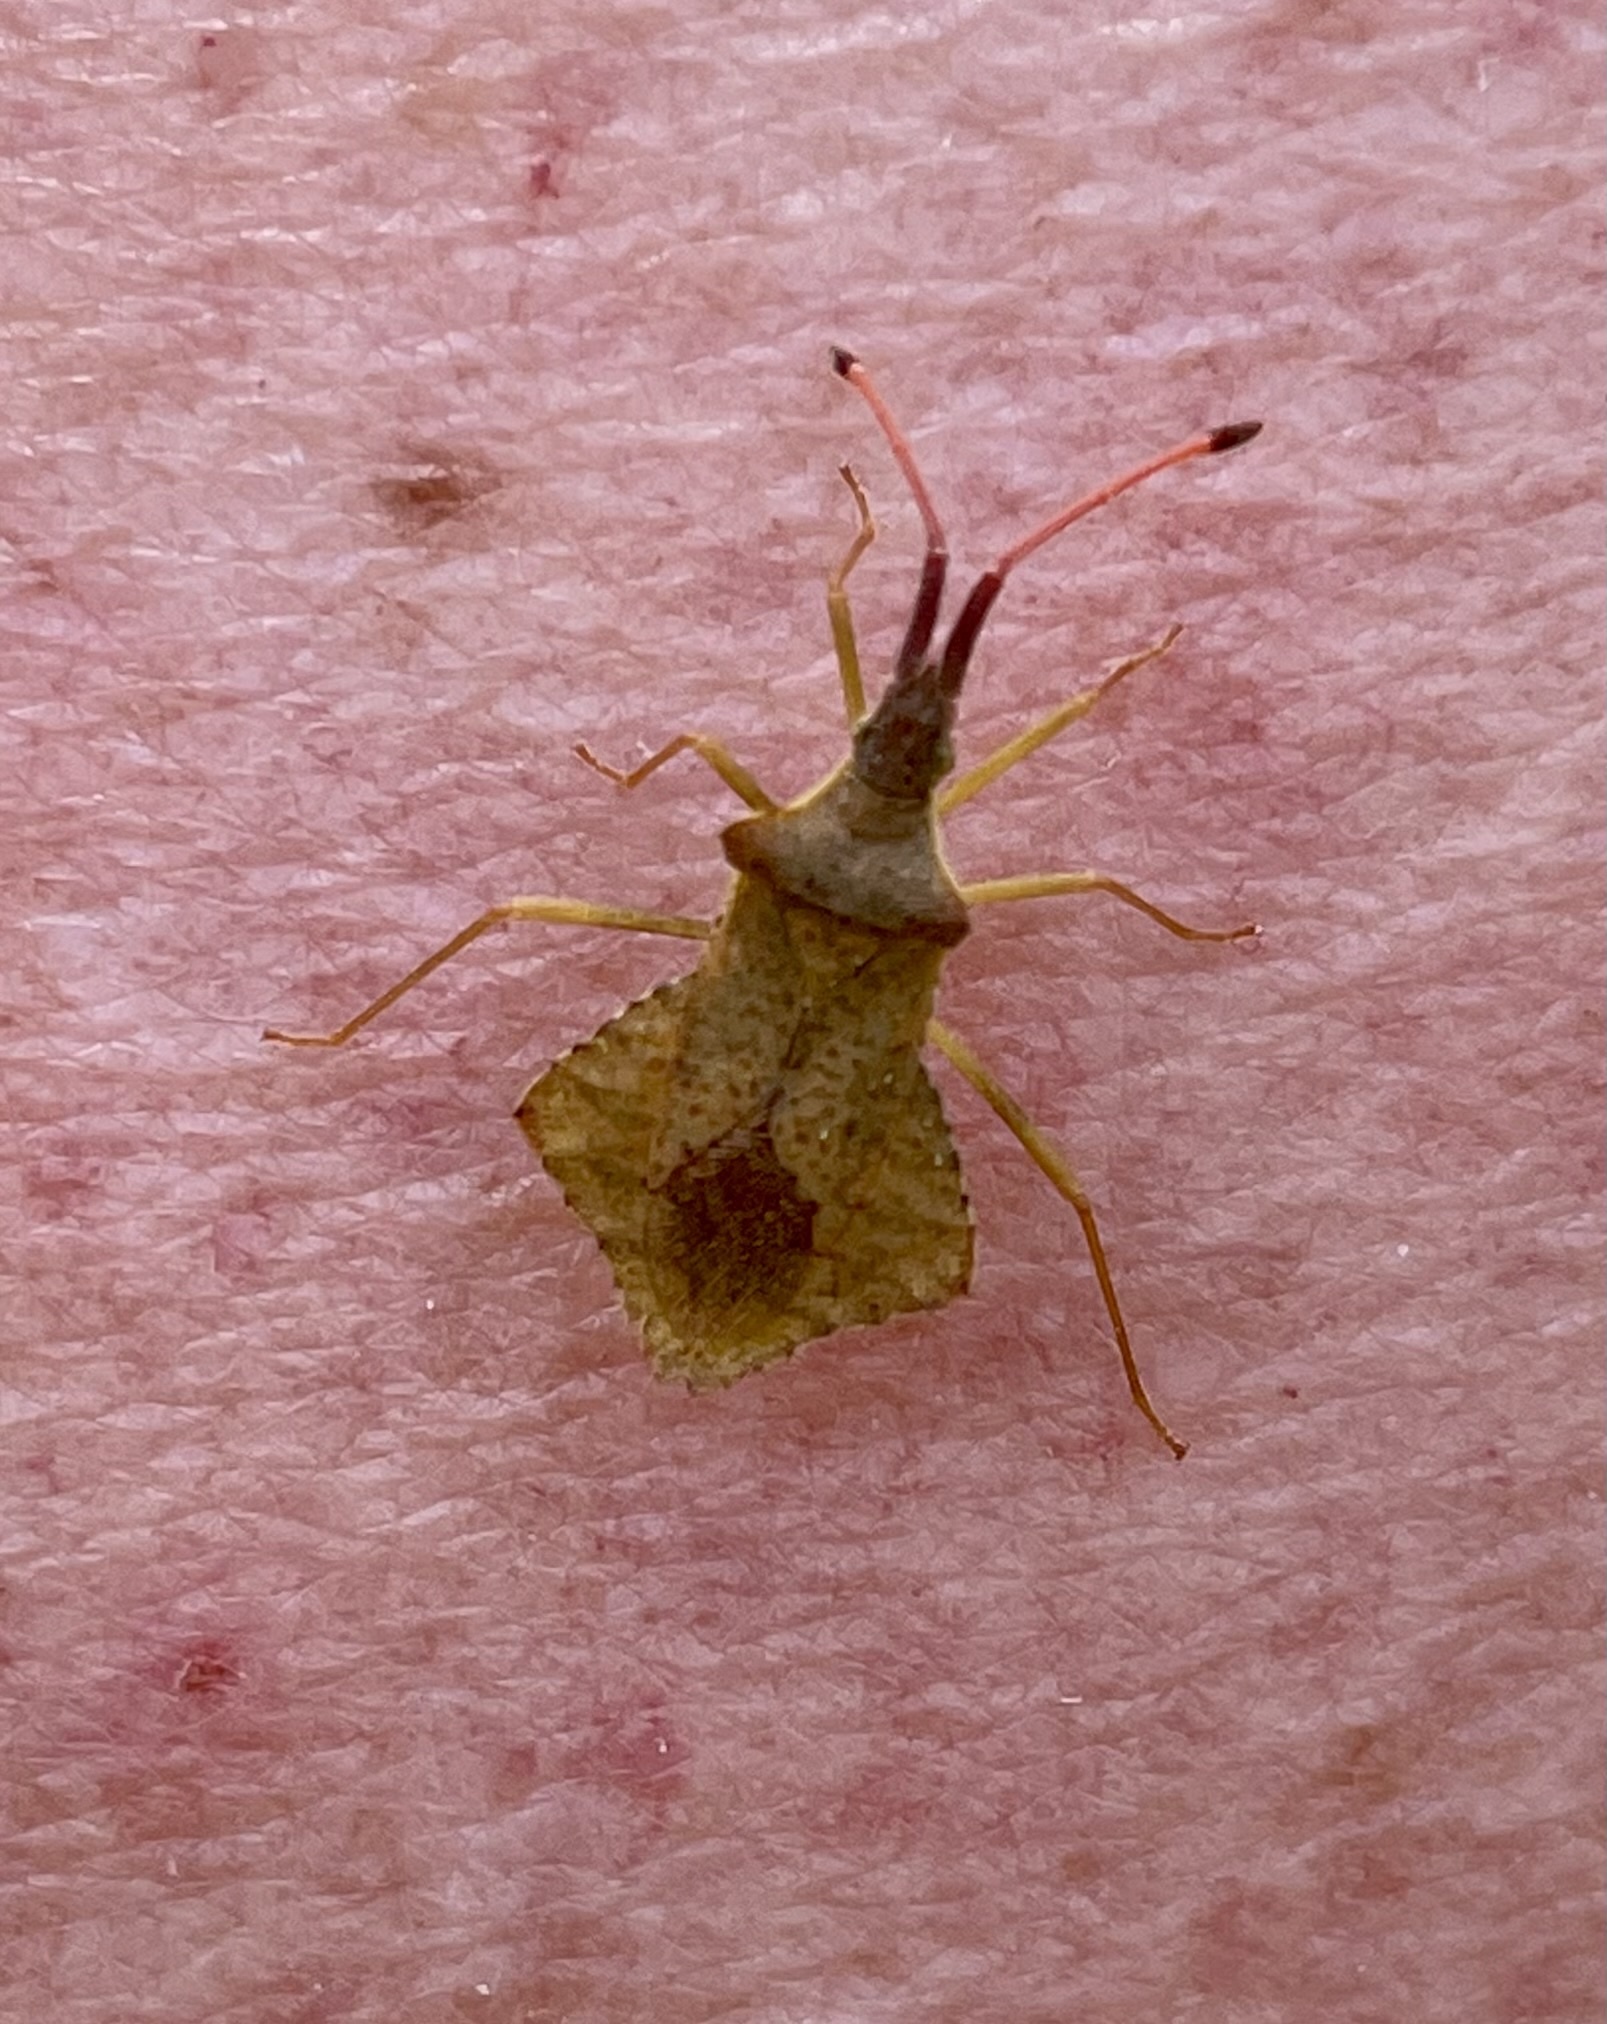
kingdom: Animalia
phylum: Arthropoda
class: Insecta
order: Hemiptera
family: Coreidae
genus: Syromastus
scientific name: Syromastus rhombeus
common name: Rhombic leatherbug
